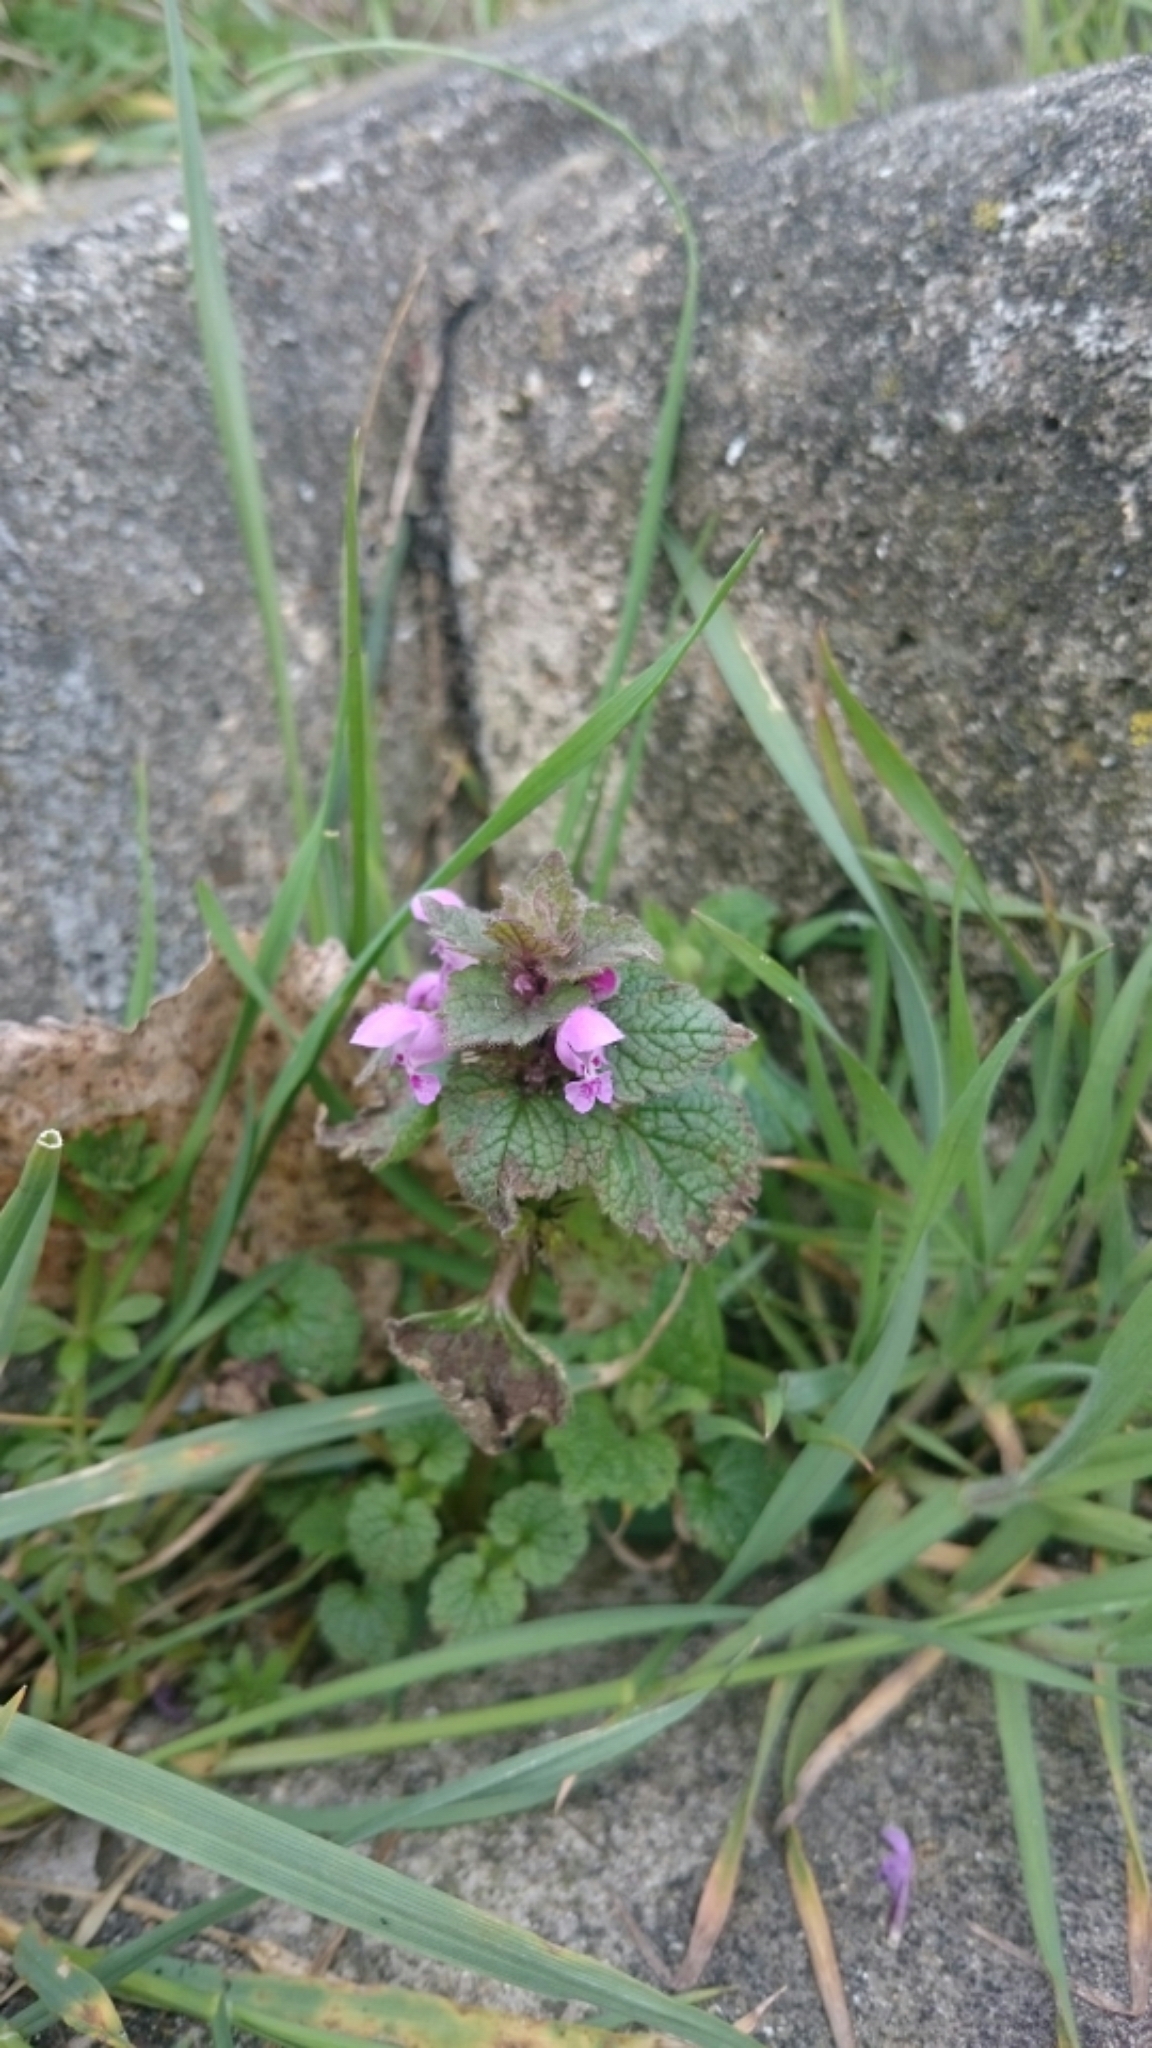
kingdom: Plantae
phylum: Tracheophyta
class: Magnoliopsida
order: Lamiales
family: Lamiaceae
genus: Lamium
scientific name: Lamium purpureum
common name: Red dead-nettle
